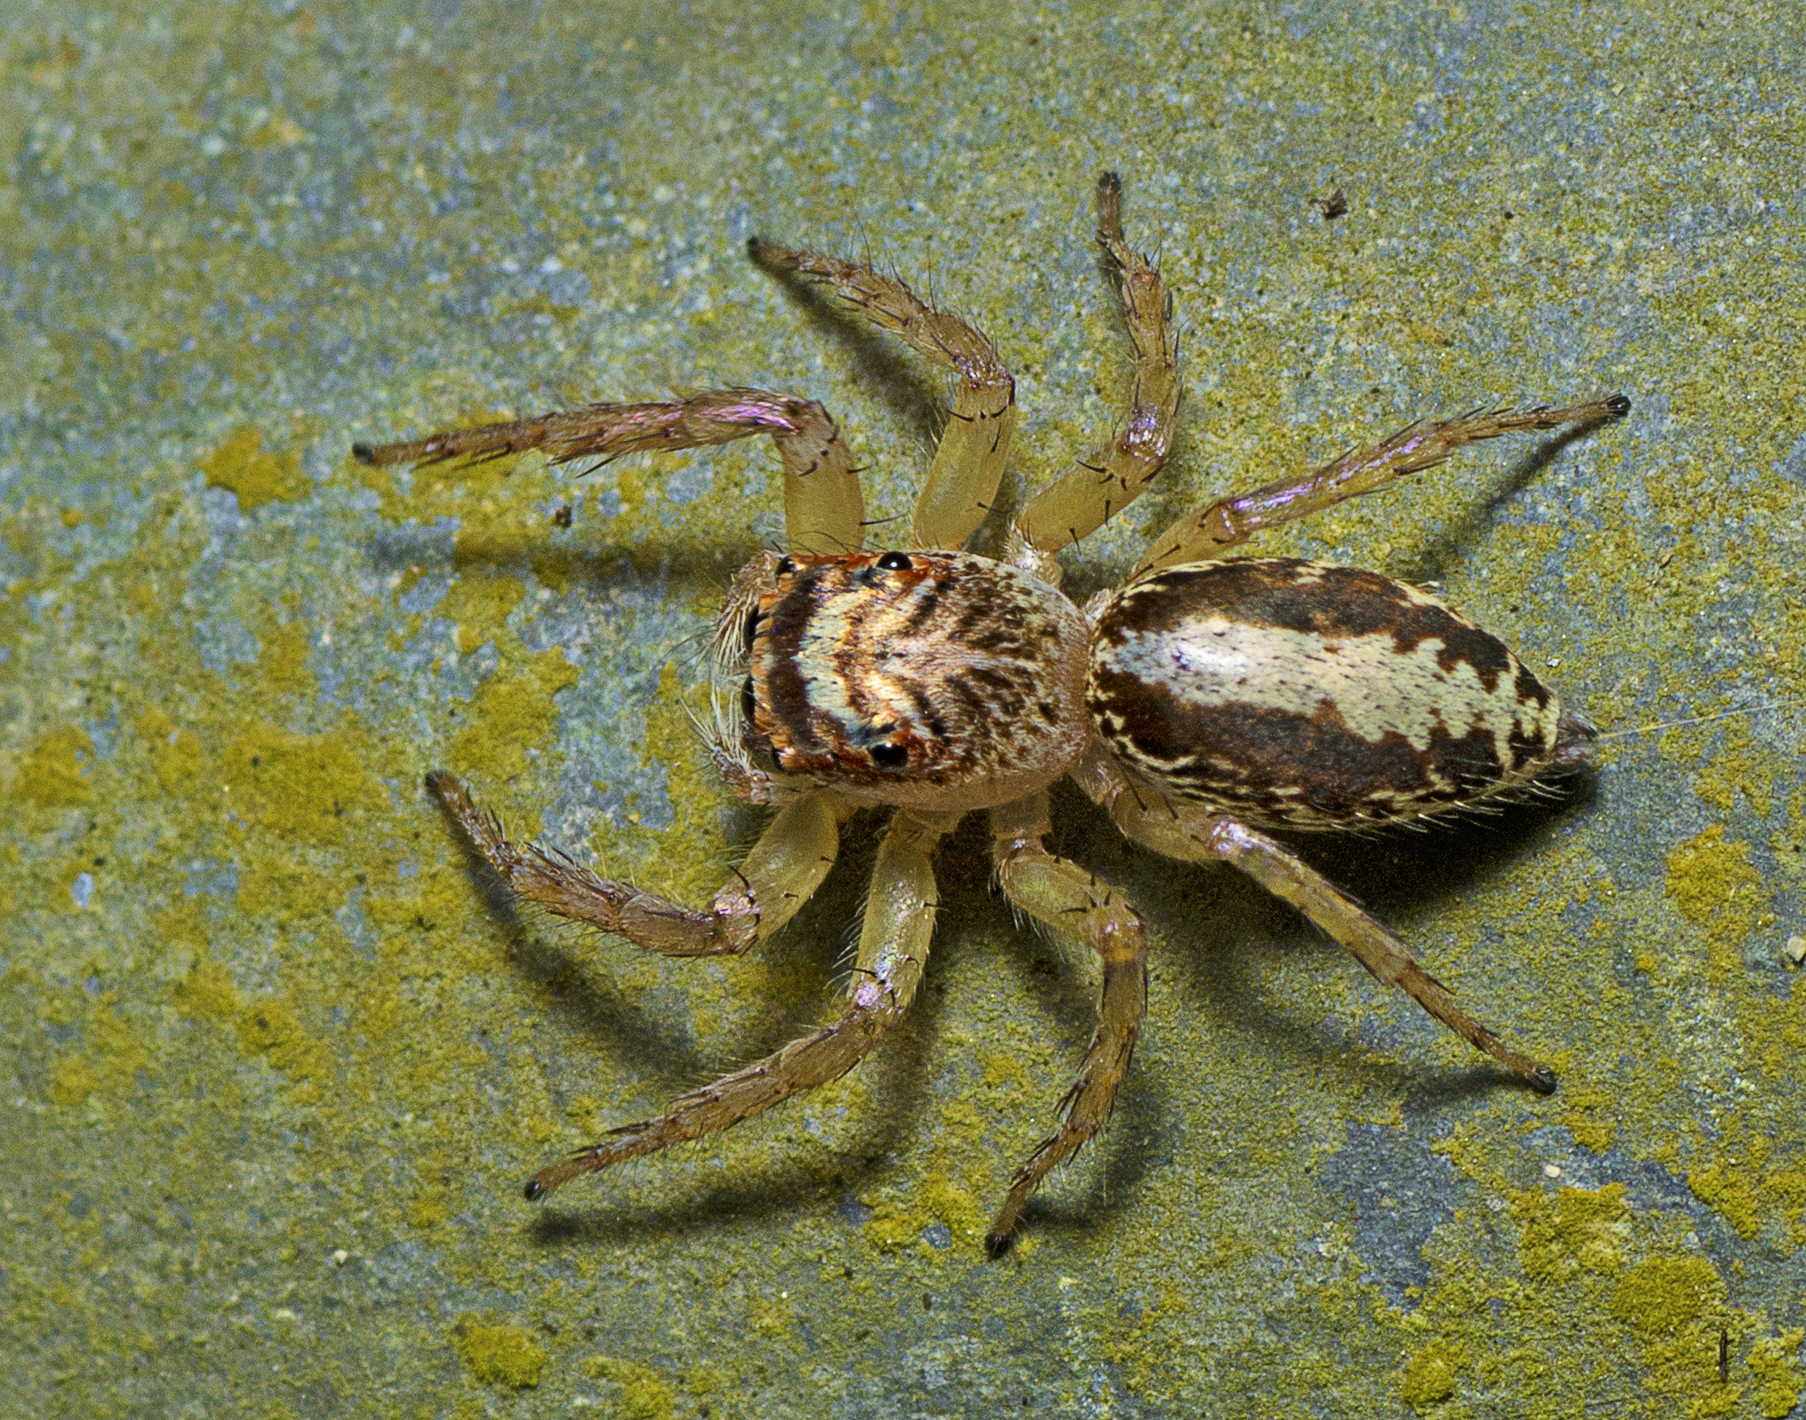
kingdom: Animalia
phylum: Arthropoda
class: Arachnida
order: Araneae
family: Salticidae
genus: Cytaea
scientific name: Cytaea plumbeiventris
